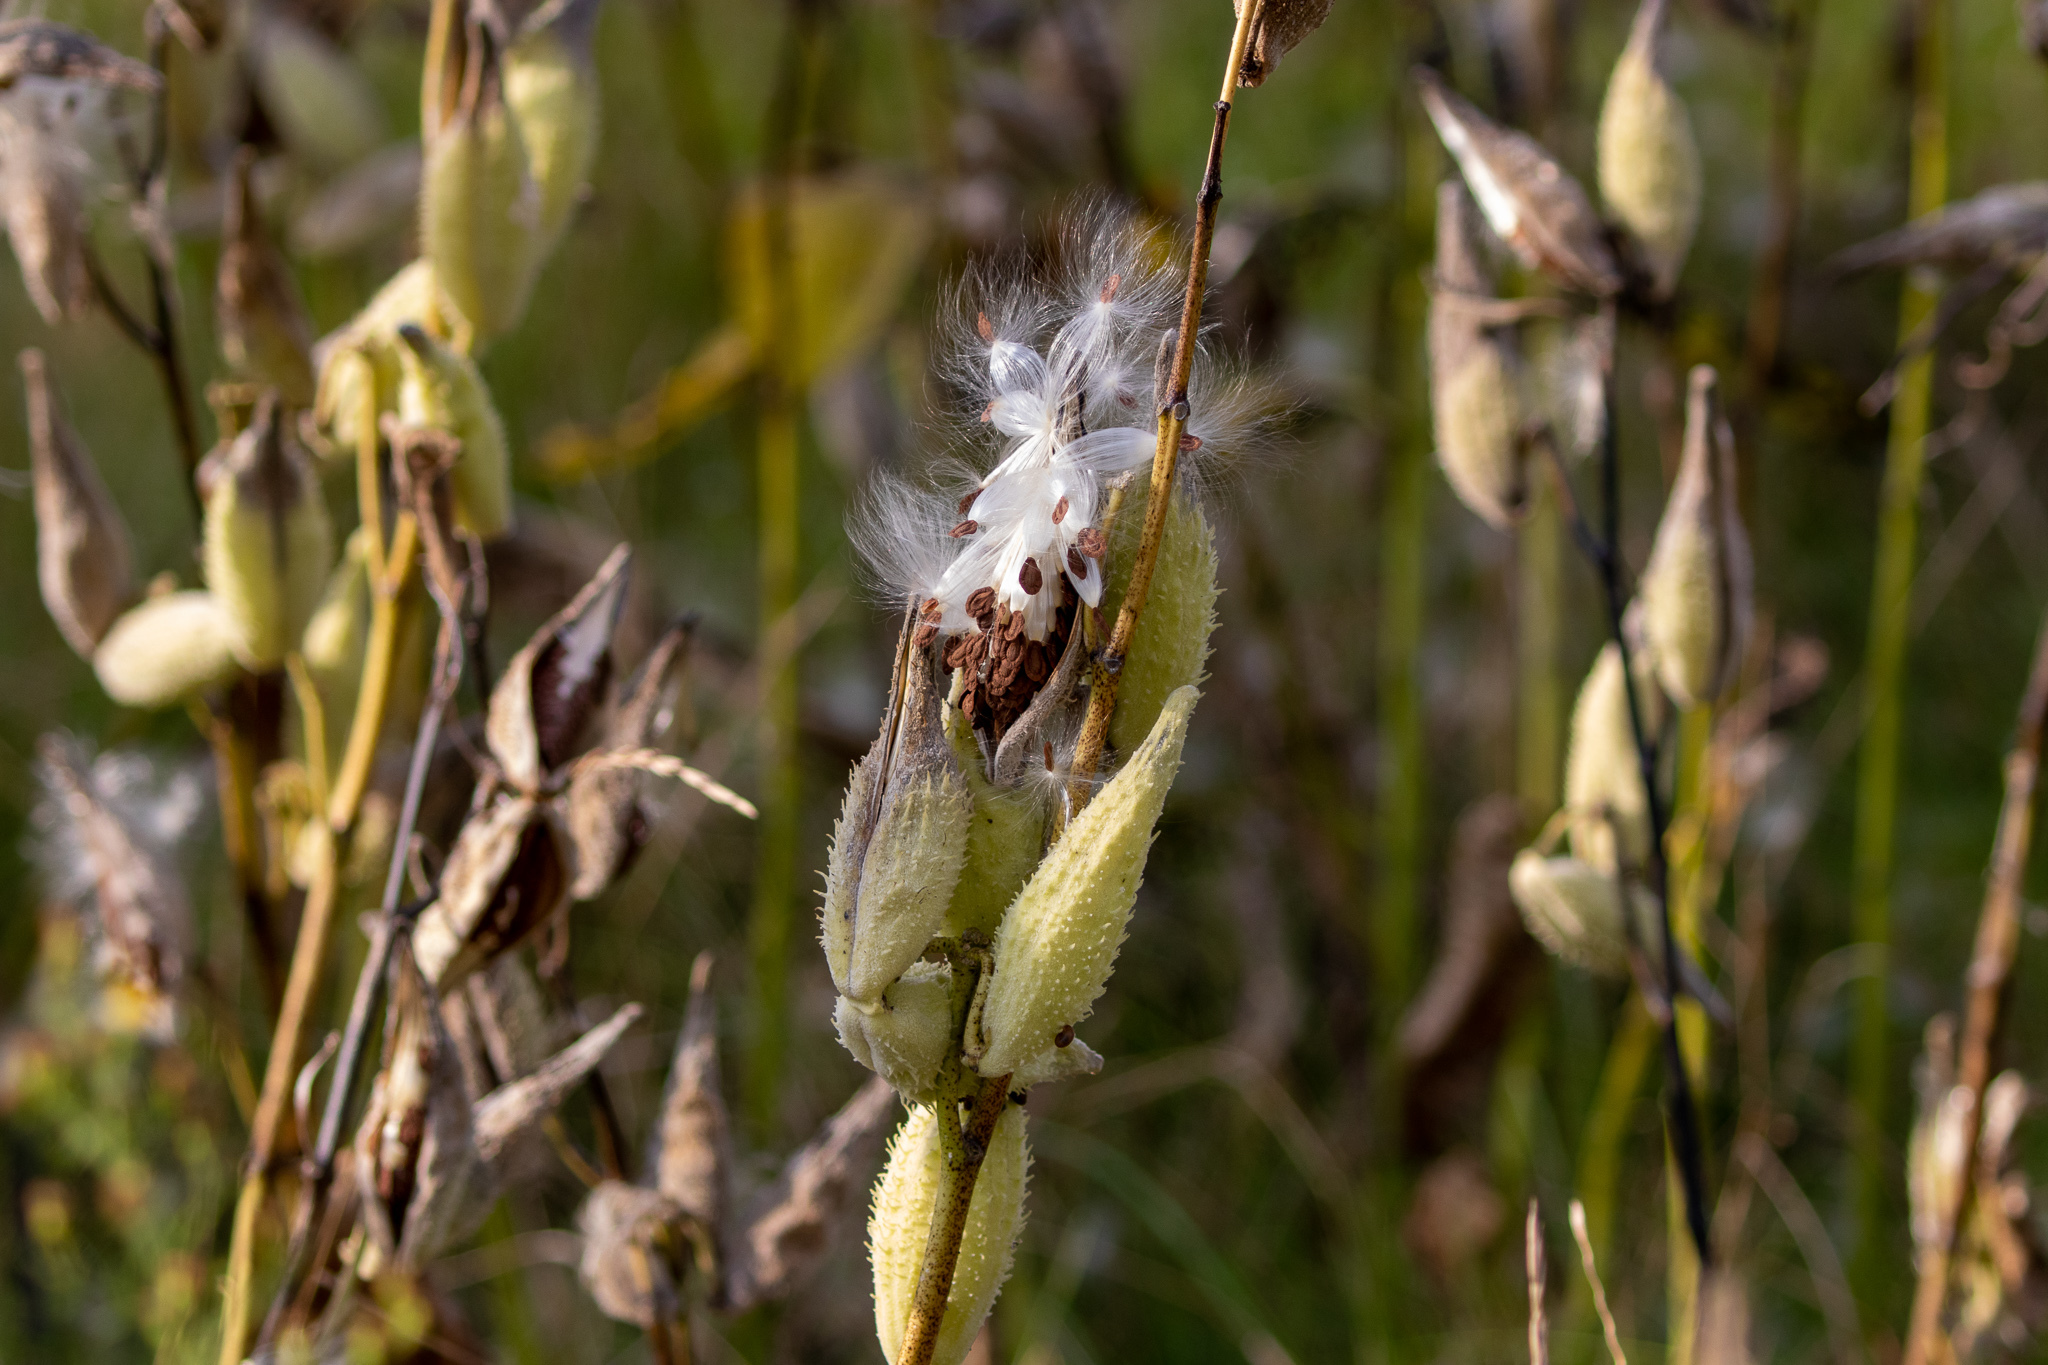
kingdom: Plantae
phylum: Tracheophyta
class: Magnoliopsida
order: Gentianales
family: Apocynaceae
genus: Asclepias
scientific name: Asclepias syriaca
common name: Common milkweed
